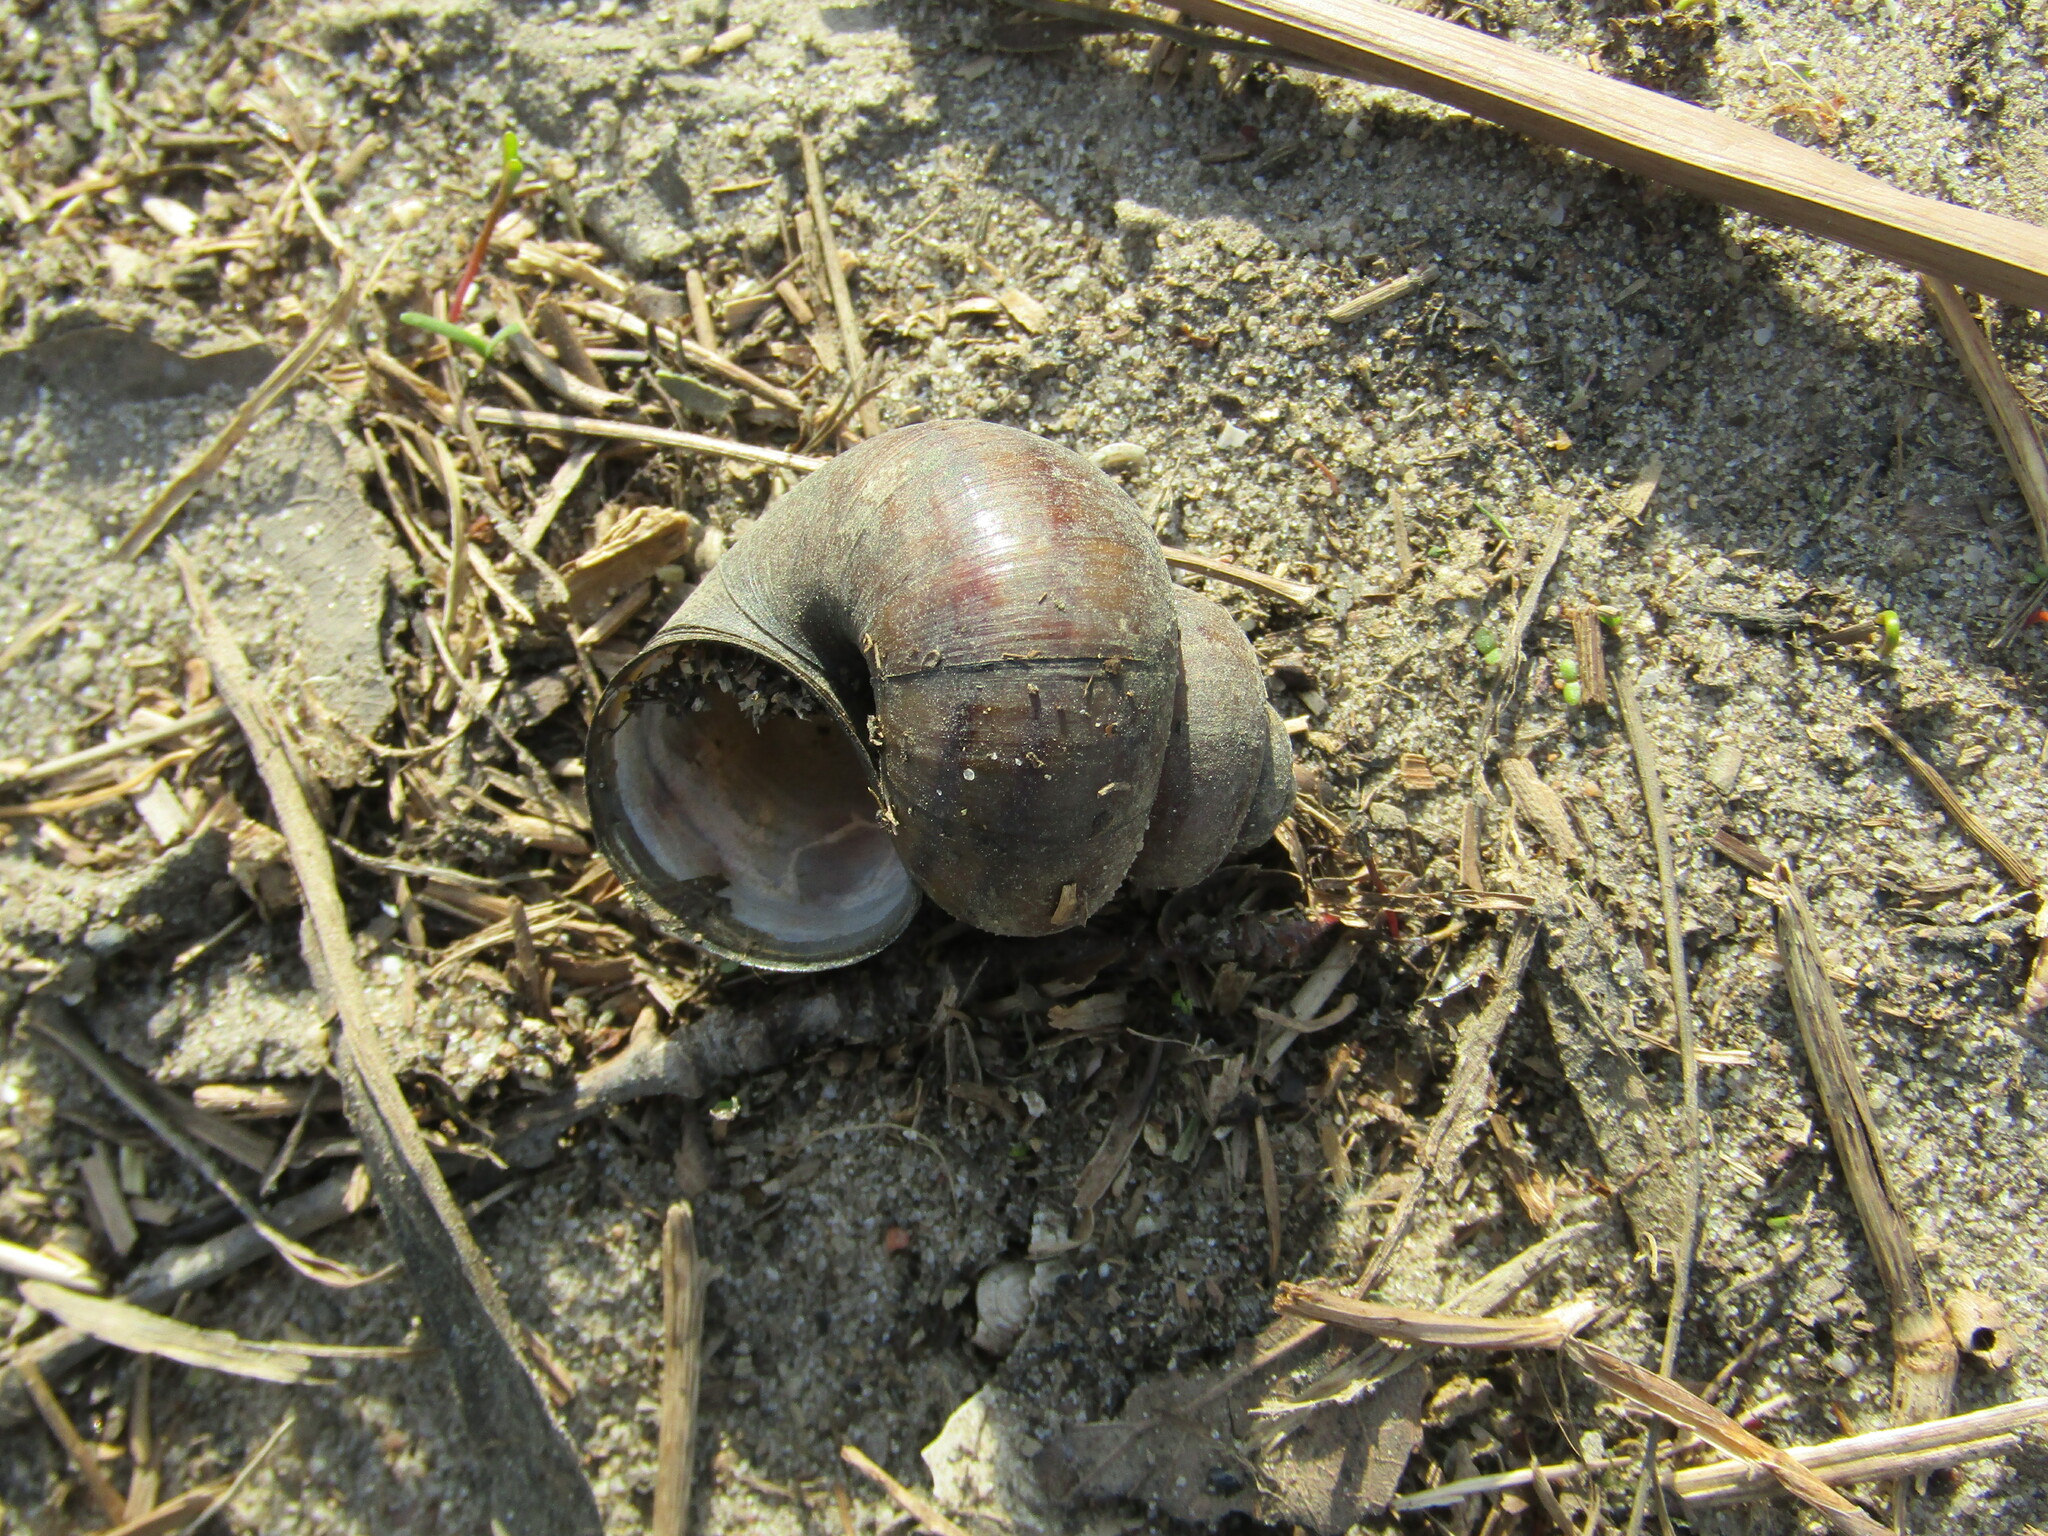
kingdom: Animalia
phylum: Mollusca
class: Gastropoda
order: Architaenioglossa
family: Viviparidae
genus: Viviparus
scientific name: Viviparus contectus
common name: Lister's river snail
